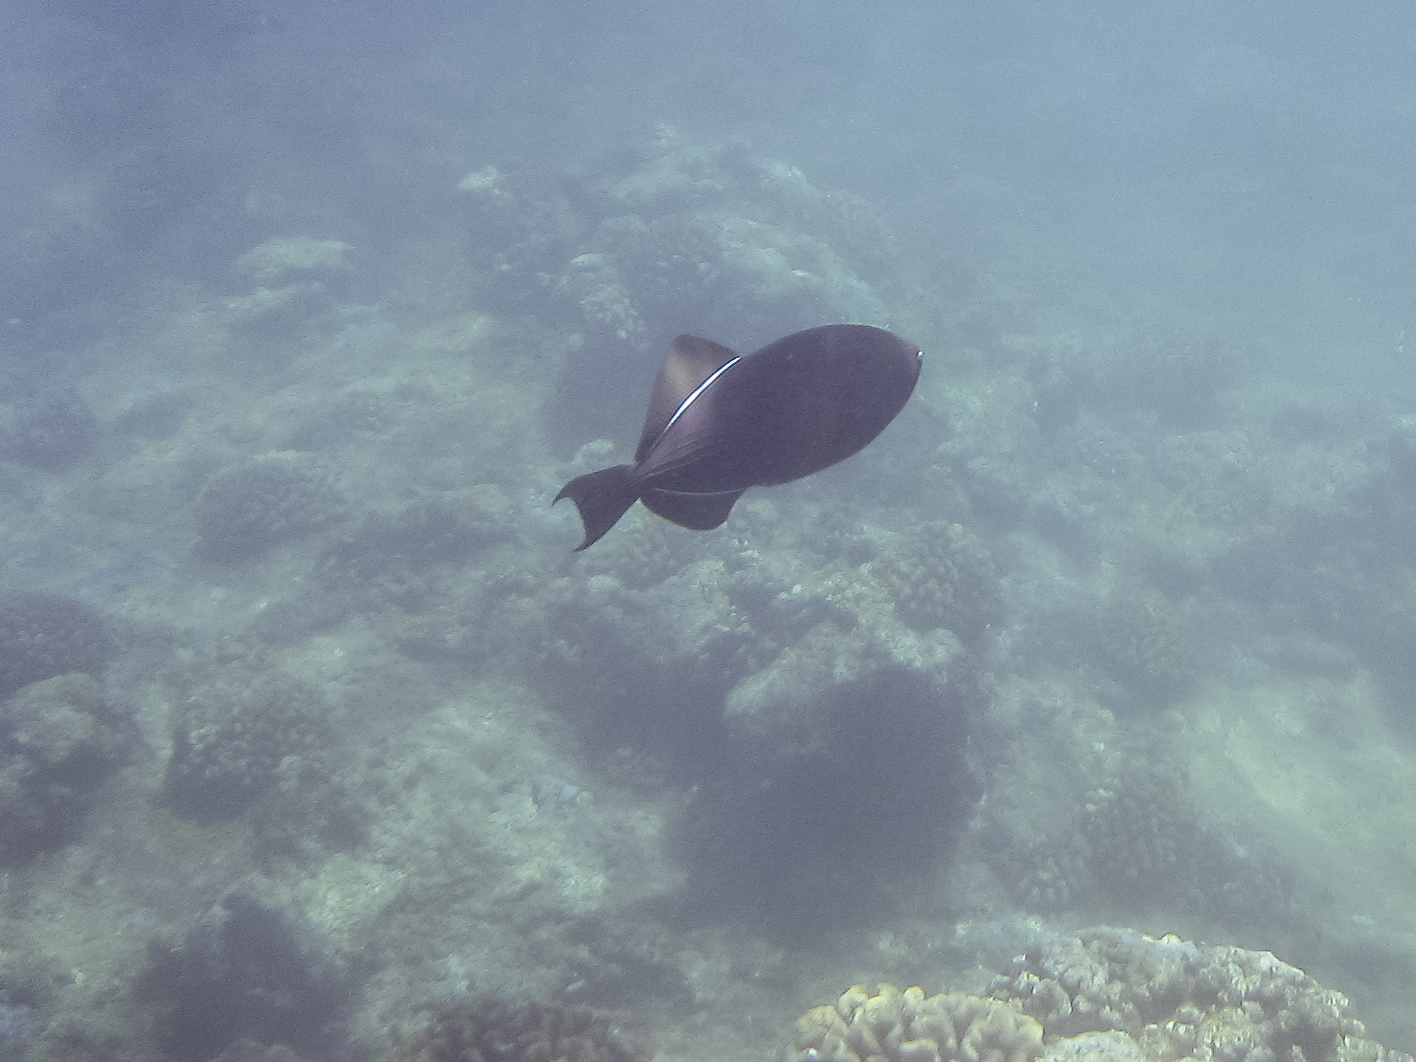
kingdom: Animalia
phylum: Chordata
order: Tetraodontiformes
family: Balistidae
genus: Melichthys
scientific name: Melichthys niger
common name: Black durgon
